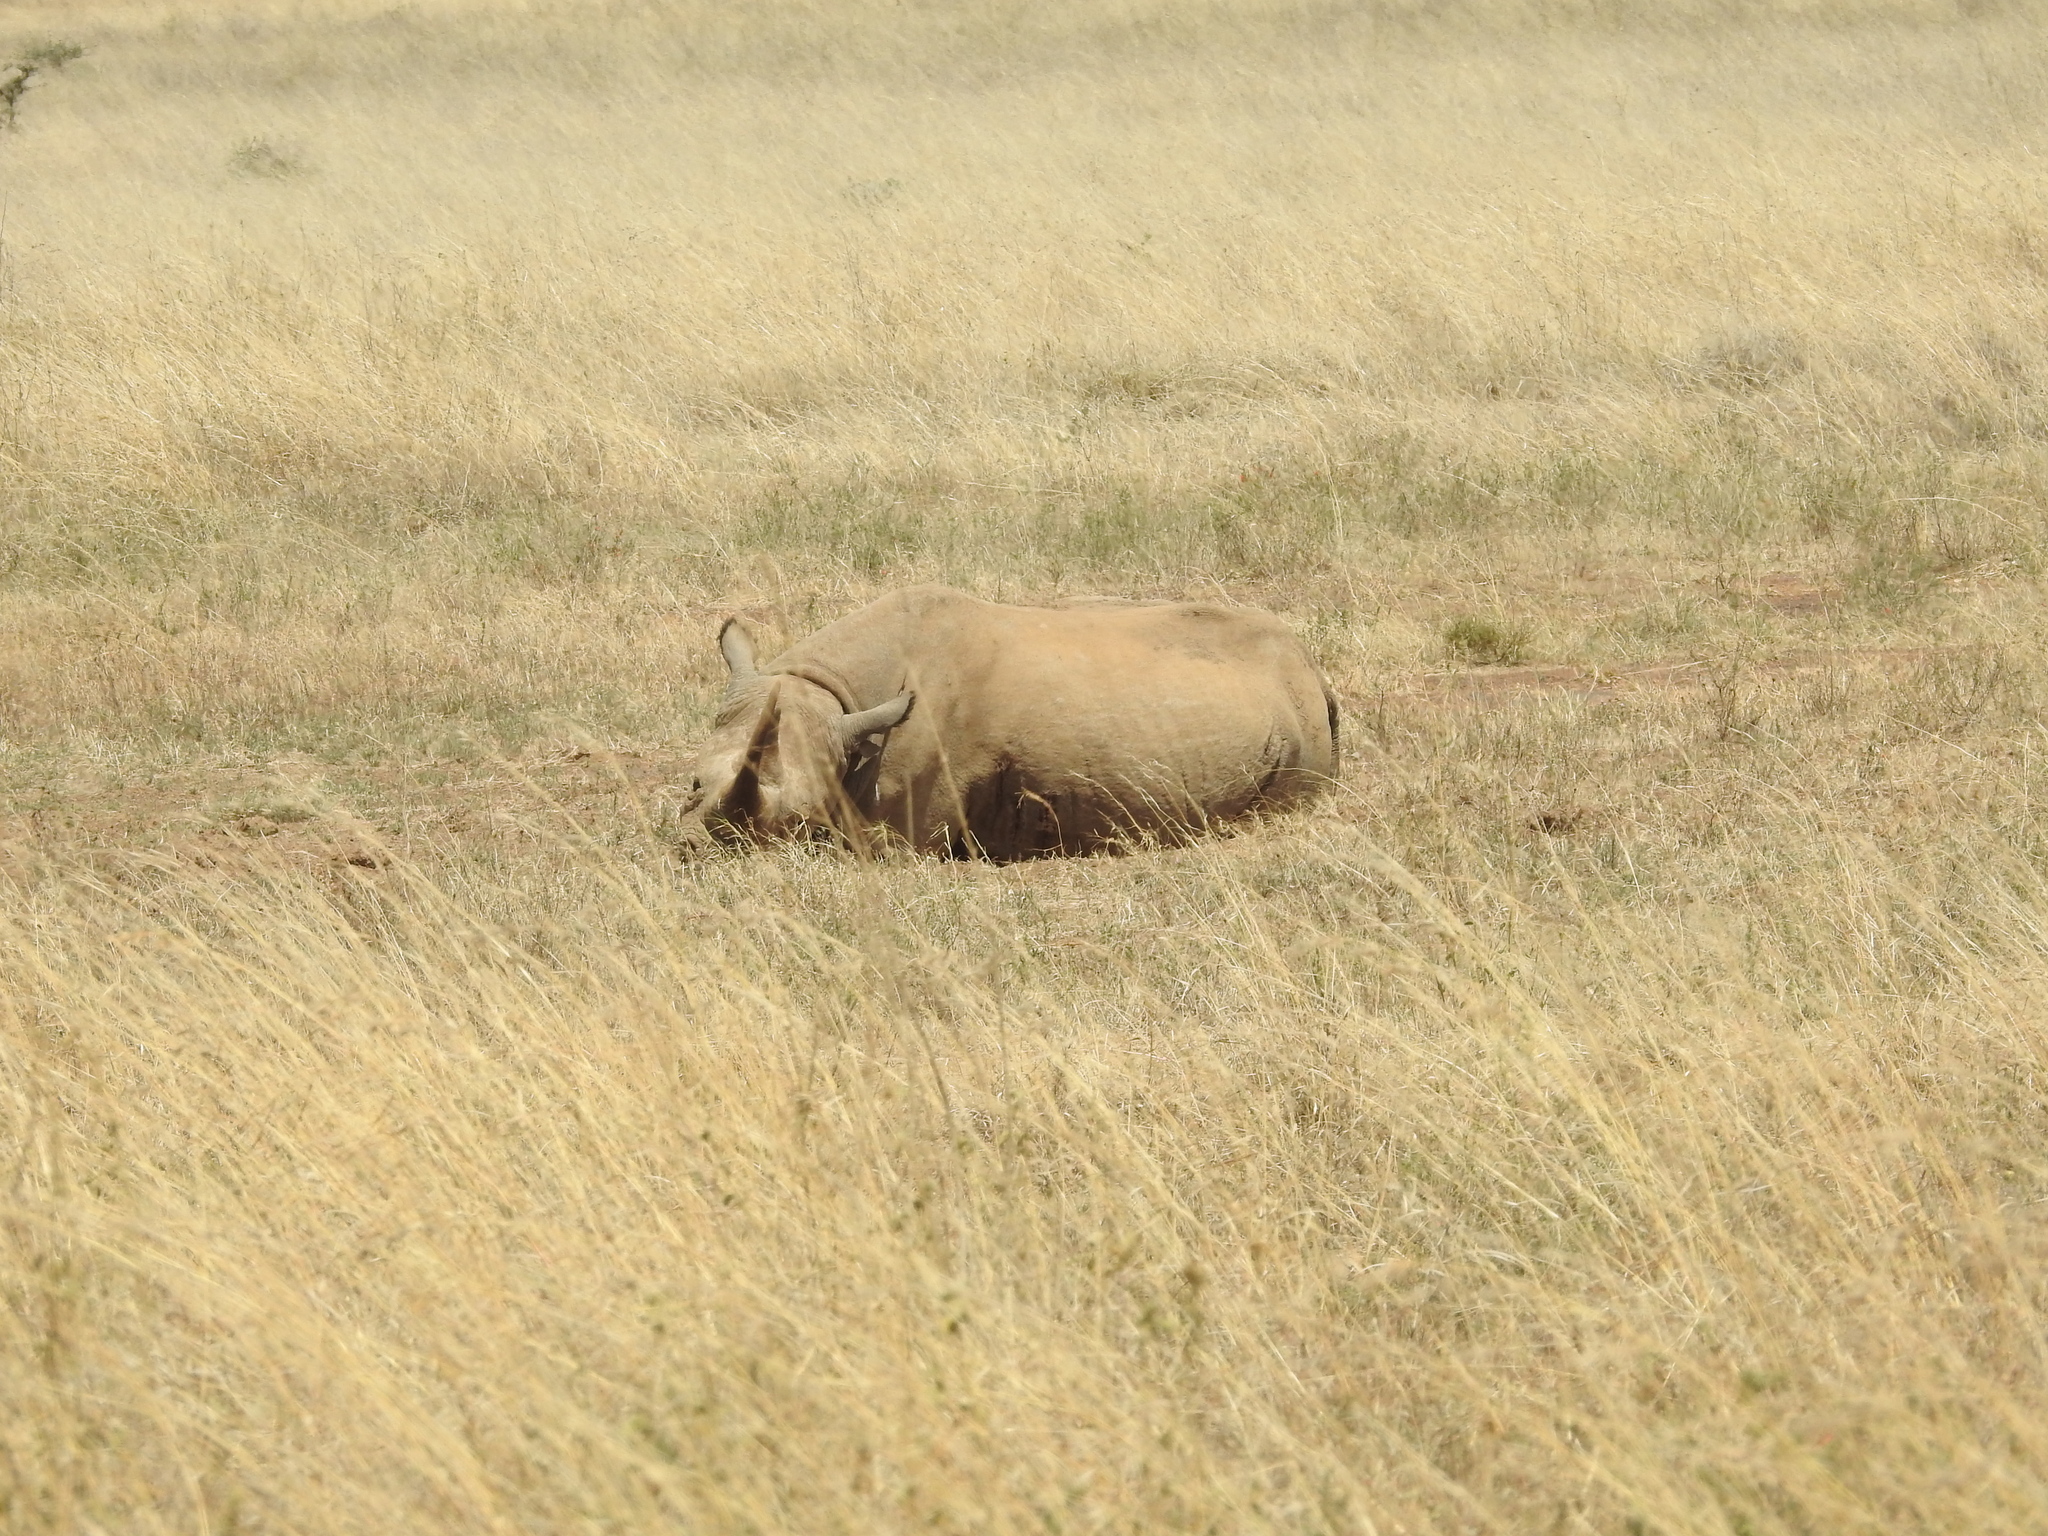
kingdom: Animalia
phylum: Chordata
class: Mammalia
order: Perissodactyla
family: Rhinocerotidae
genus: Diceros
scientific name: Diceros bicornis
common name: Black rhinoceros
